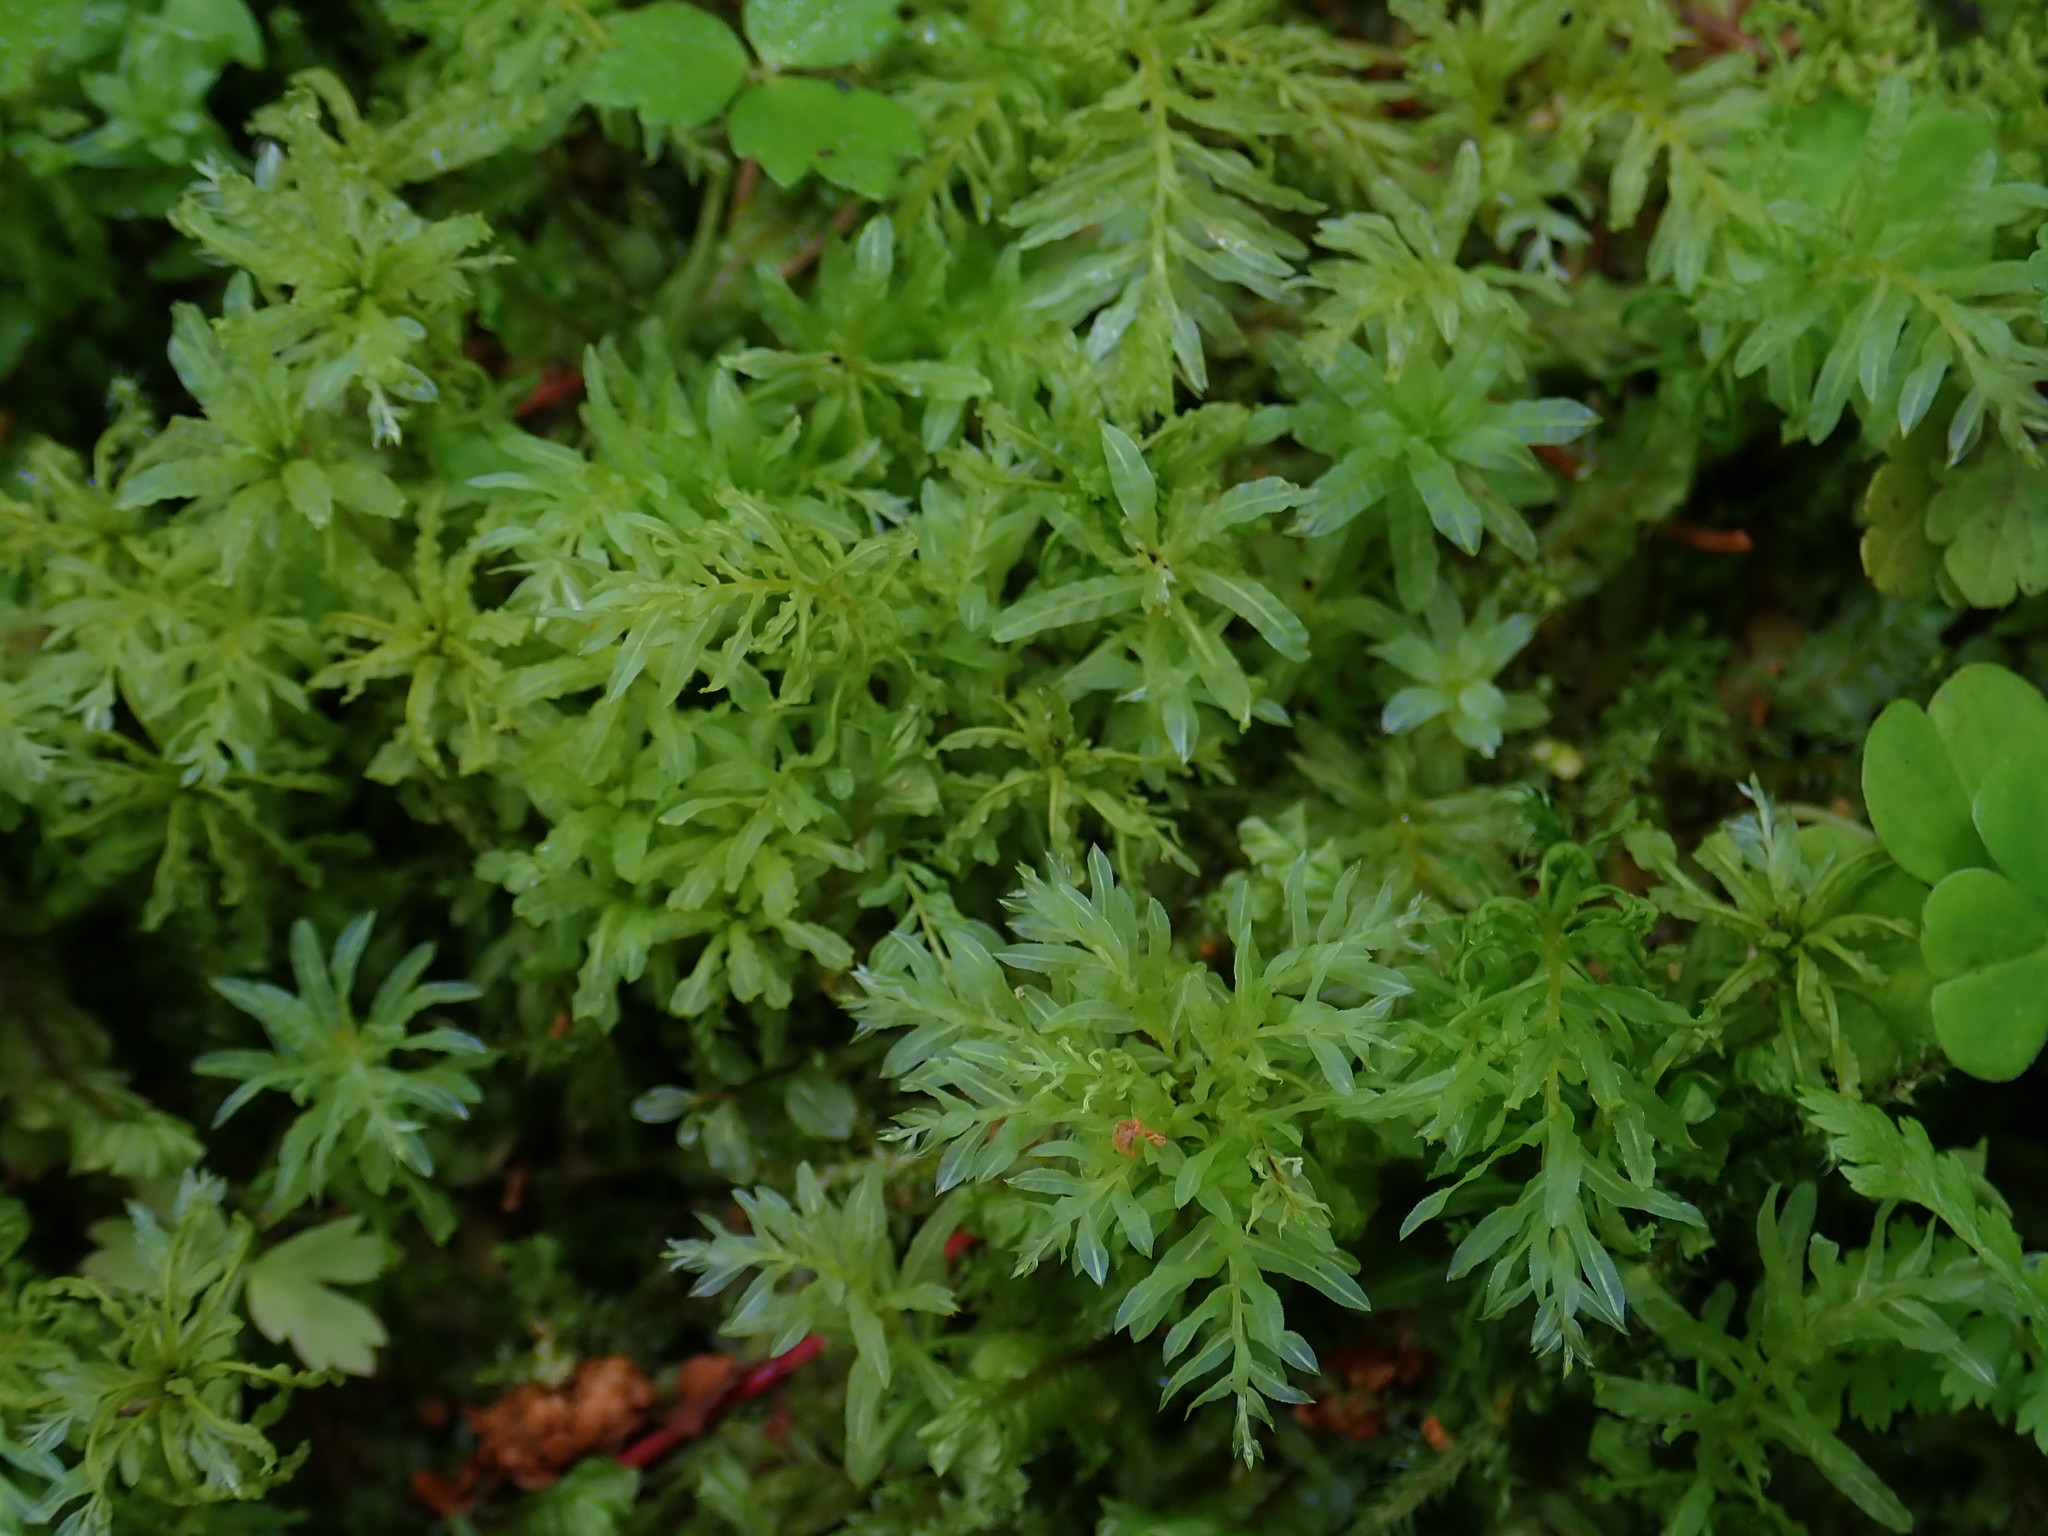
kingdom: Plantae
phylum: Bryophyta
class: Bryopsida
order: Bryales
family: Mniaceae
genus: Plagiomnium
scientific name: Plagiomnium undulatum
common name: Hart's-tongue thyme-moss
